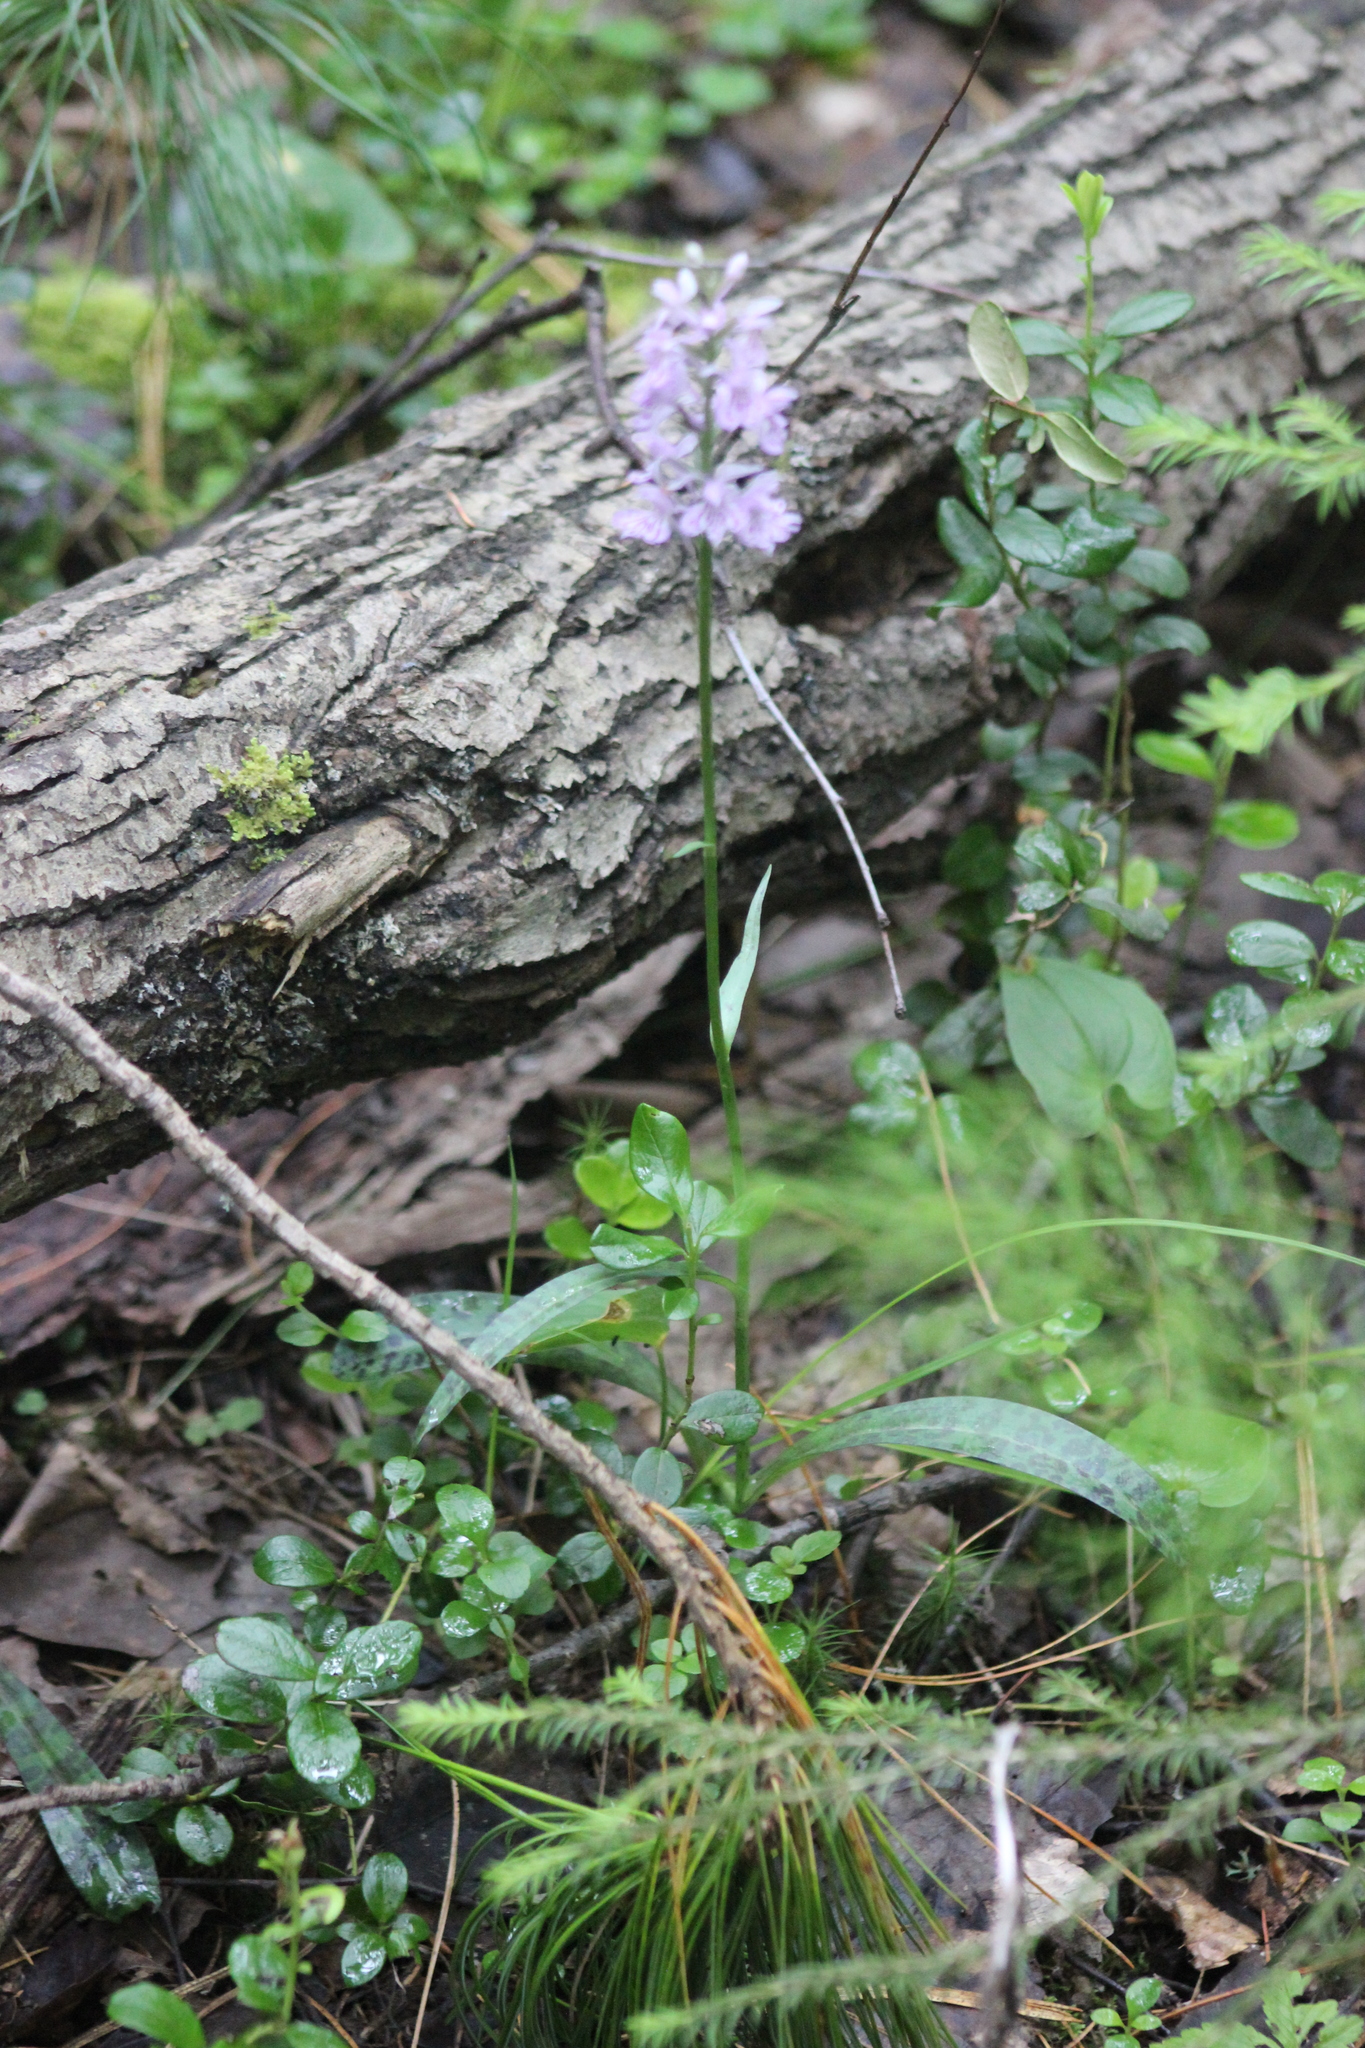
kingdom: Plantae
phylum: Tracheophyta
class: Liliopsida
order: Asparagales
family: Orchidaceae
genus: Dactylorhiza
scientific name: Dactylorhiza maculata
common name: Heath spotted-orchid
